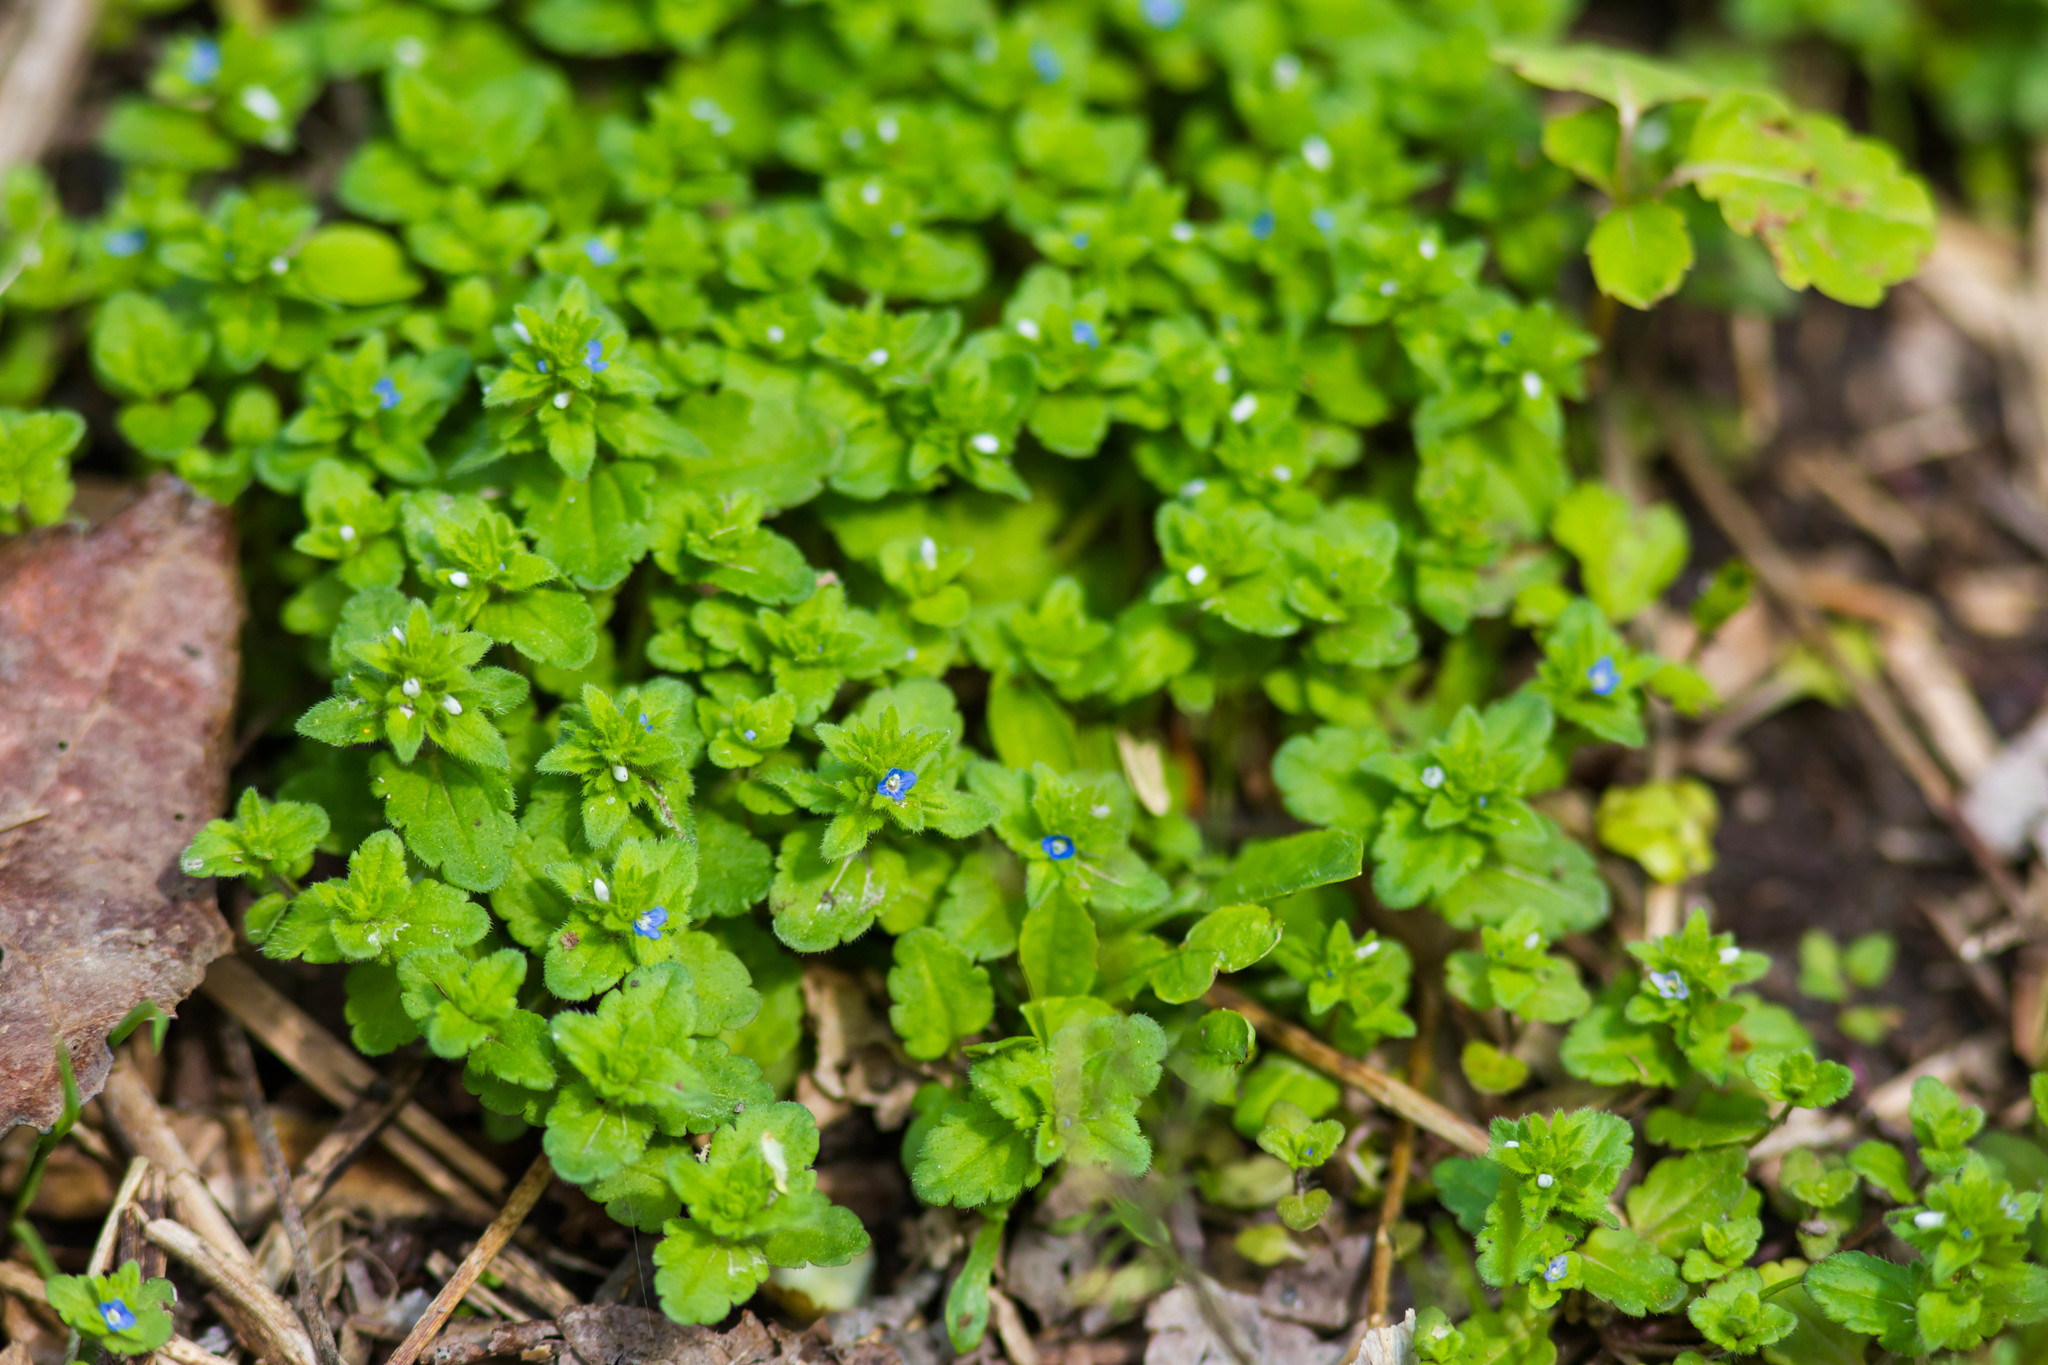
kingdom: Plantae
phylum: Tracheophyta
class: Magnoliopsida
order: Lamiales
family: Plantaginaceae
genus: Veronica
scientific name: Veronica arvensis
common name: Corn speedwell
